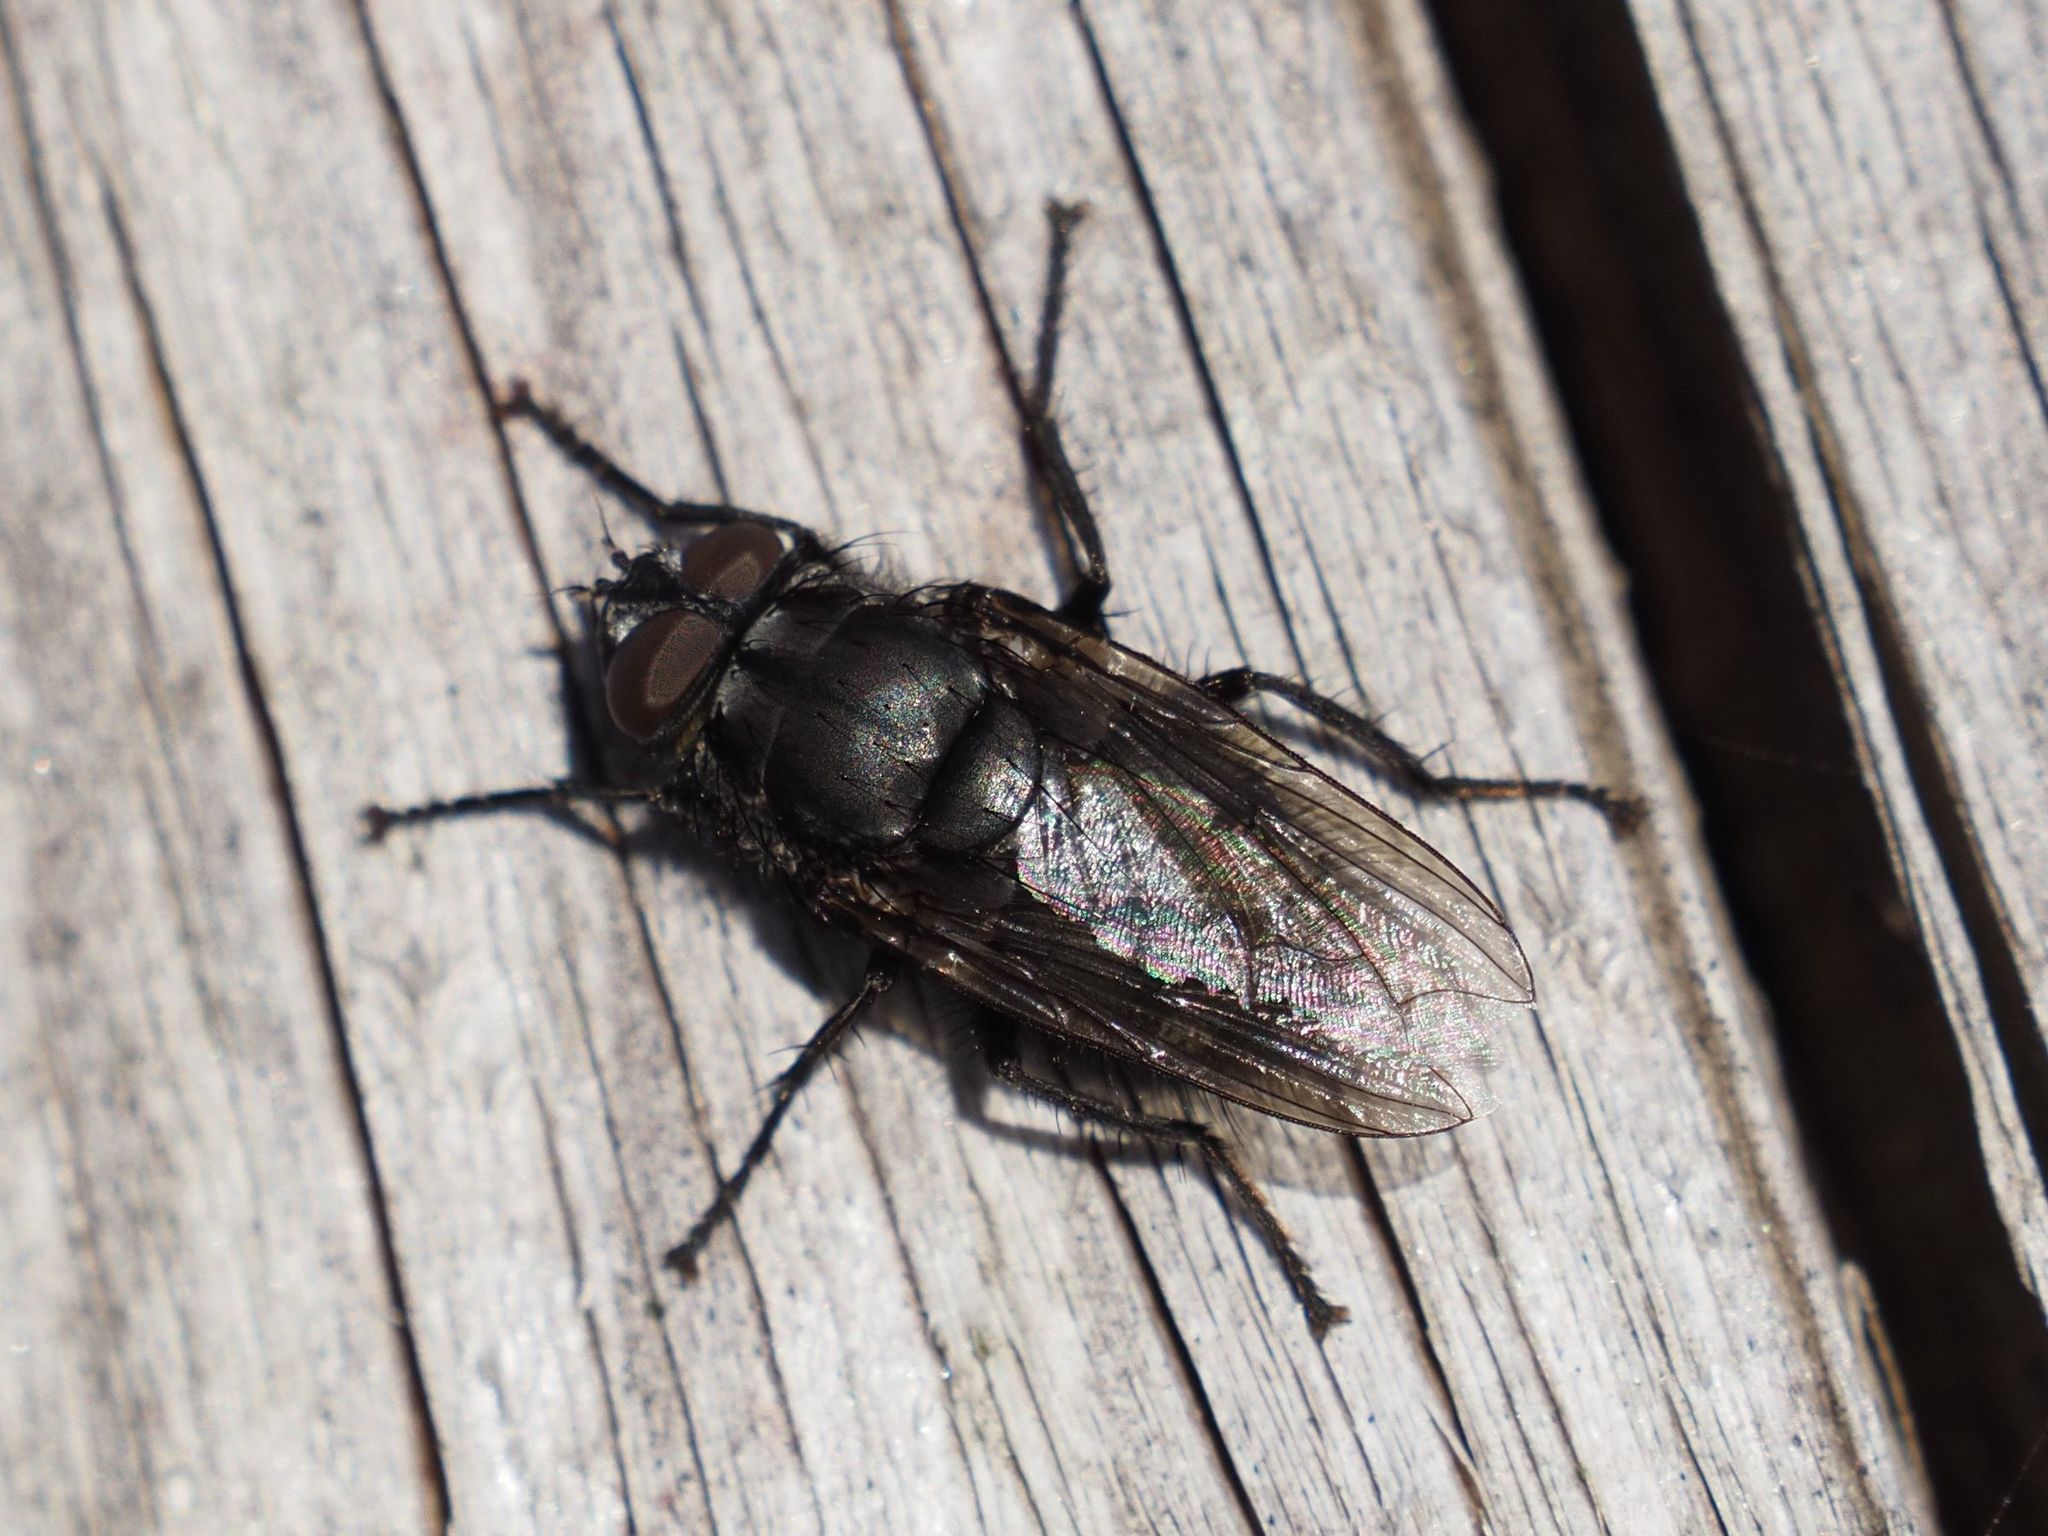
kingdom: Animalia
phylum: Arthropoda
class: Insecta
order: Diptera
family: Polleniidae
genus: Pollenia
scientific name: Pollenia vagabunda
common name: Vagabund cluster fly
